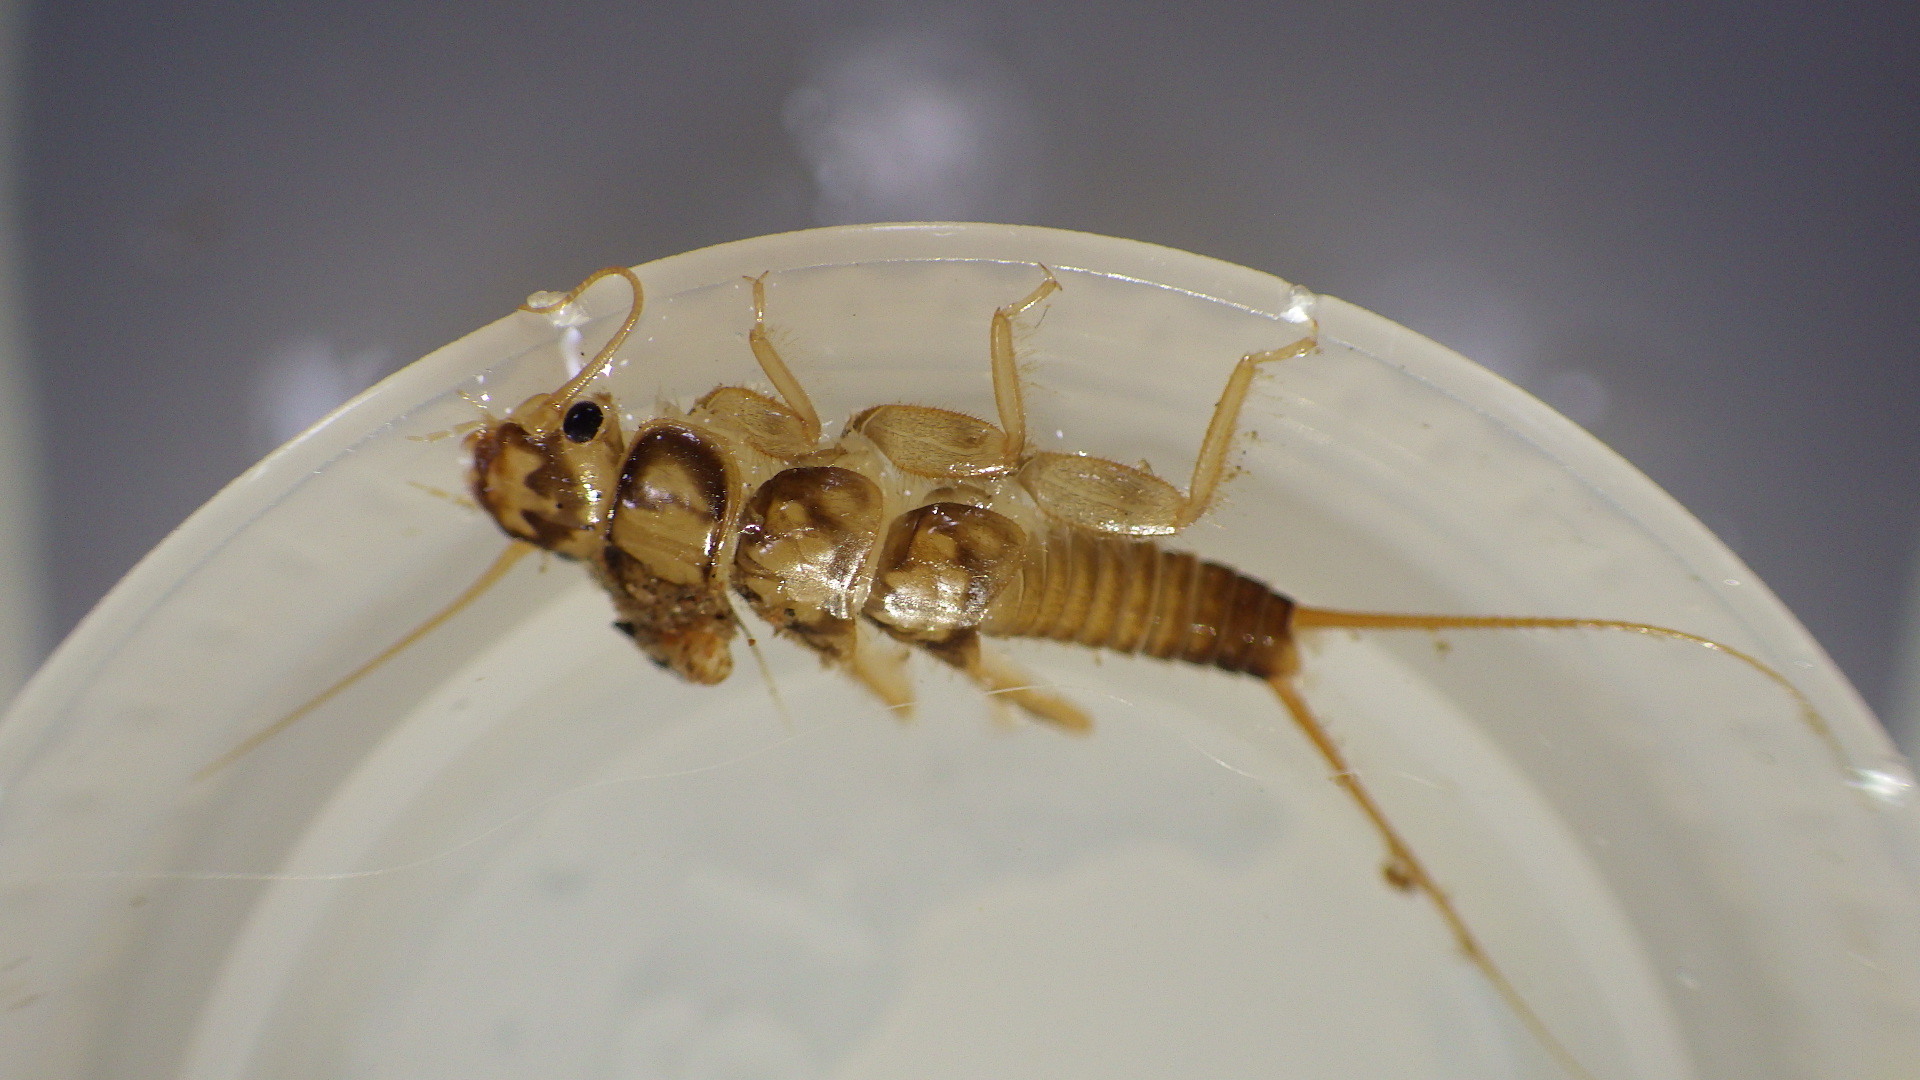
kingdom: Animalia
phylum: Arthropoda
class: Insecta
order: Plecoptera
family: Perlidae
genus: Eccoptura
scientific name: Eccoptura xanthenes
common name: Yellow stone
